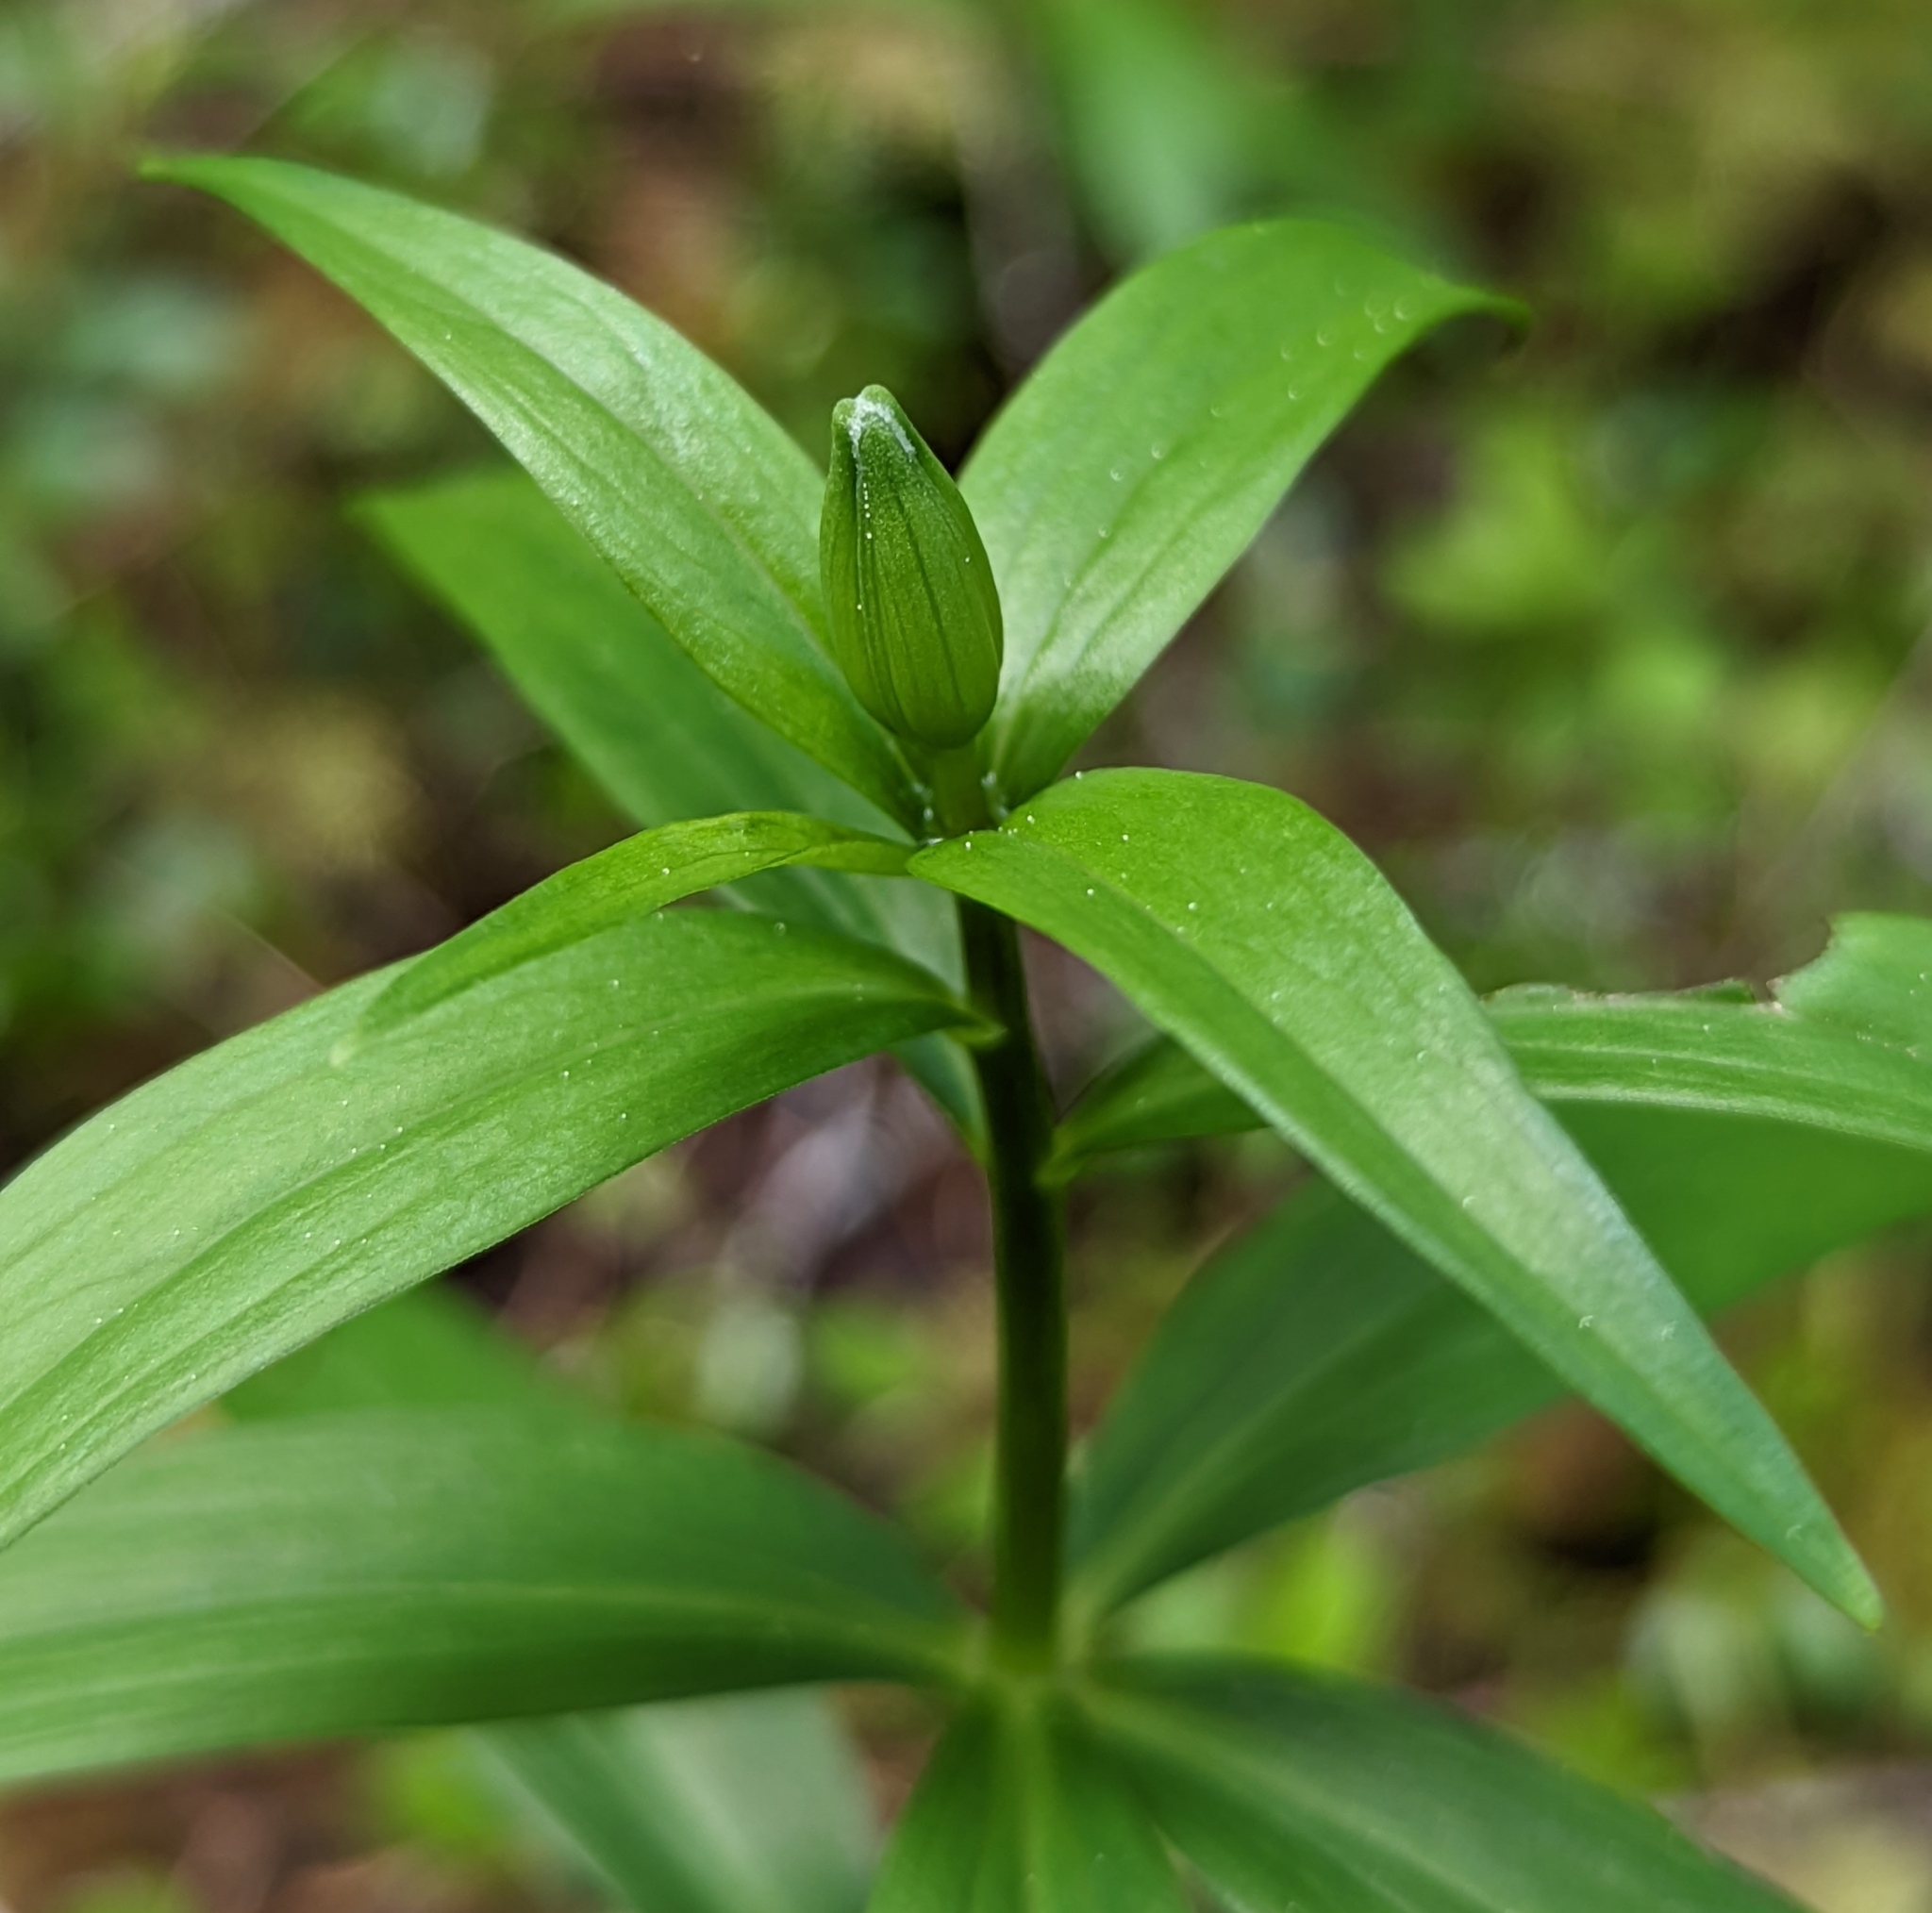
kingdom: Plantae
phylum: Tracheophyta
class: Liliopsida
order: Liliales
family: Liliaceae
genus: Lilium
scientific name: Lilium columbianum
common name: Columbia lily
